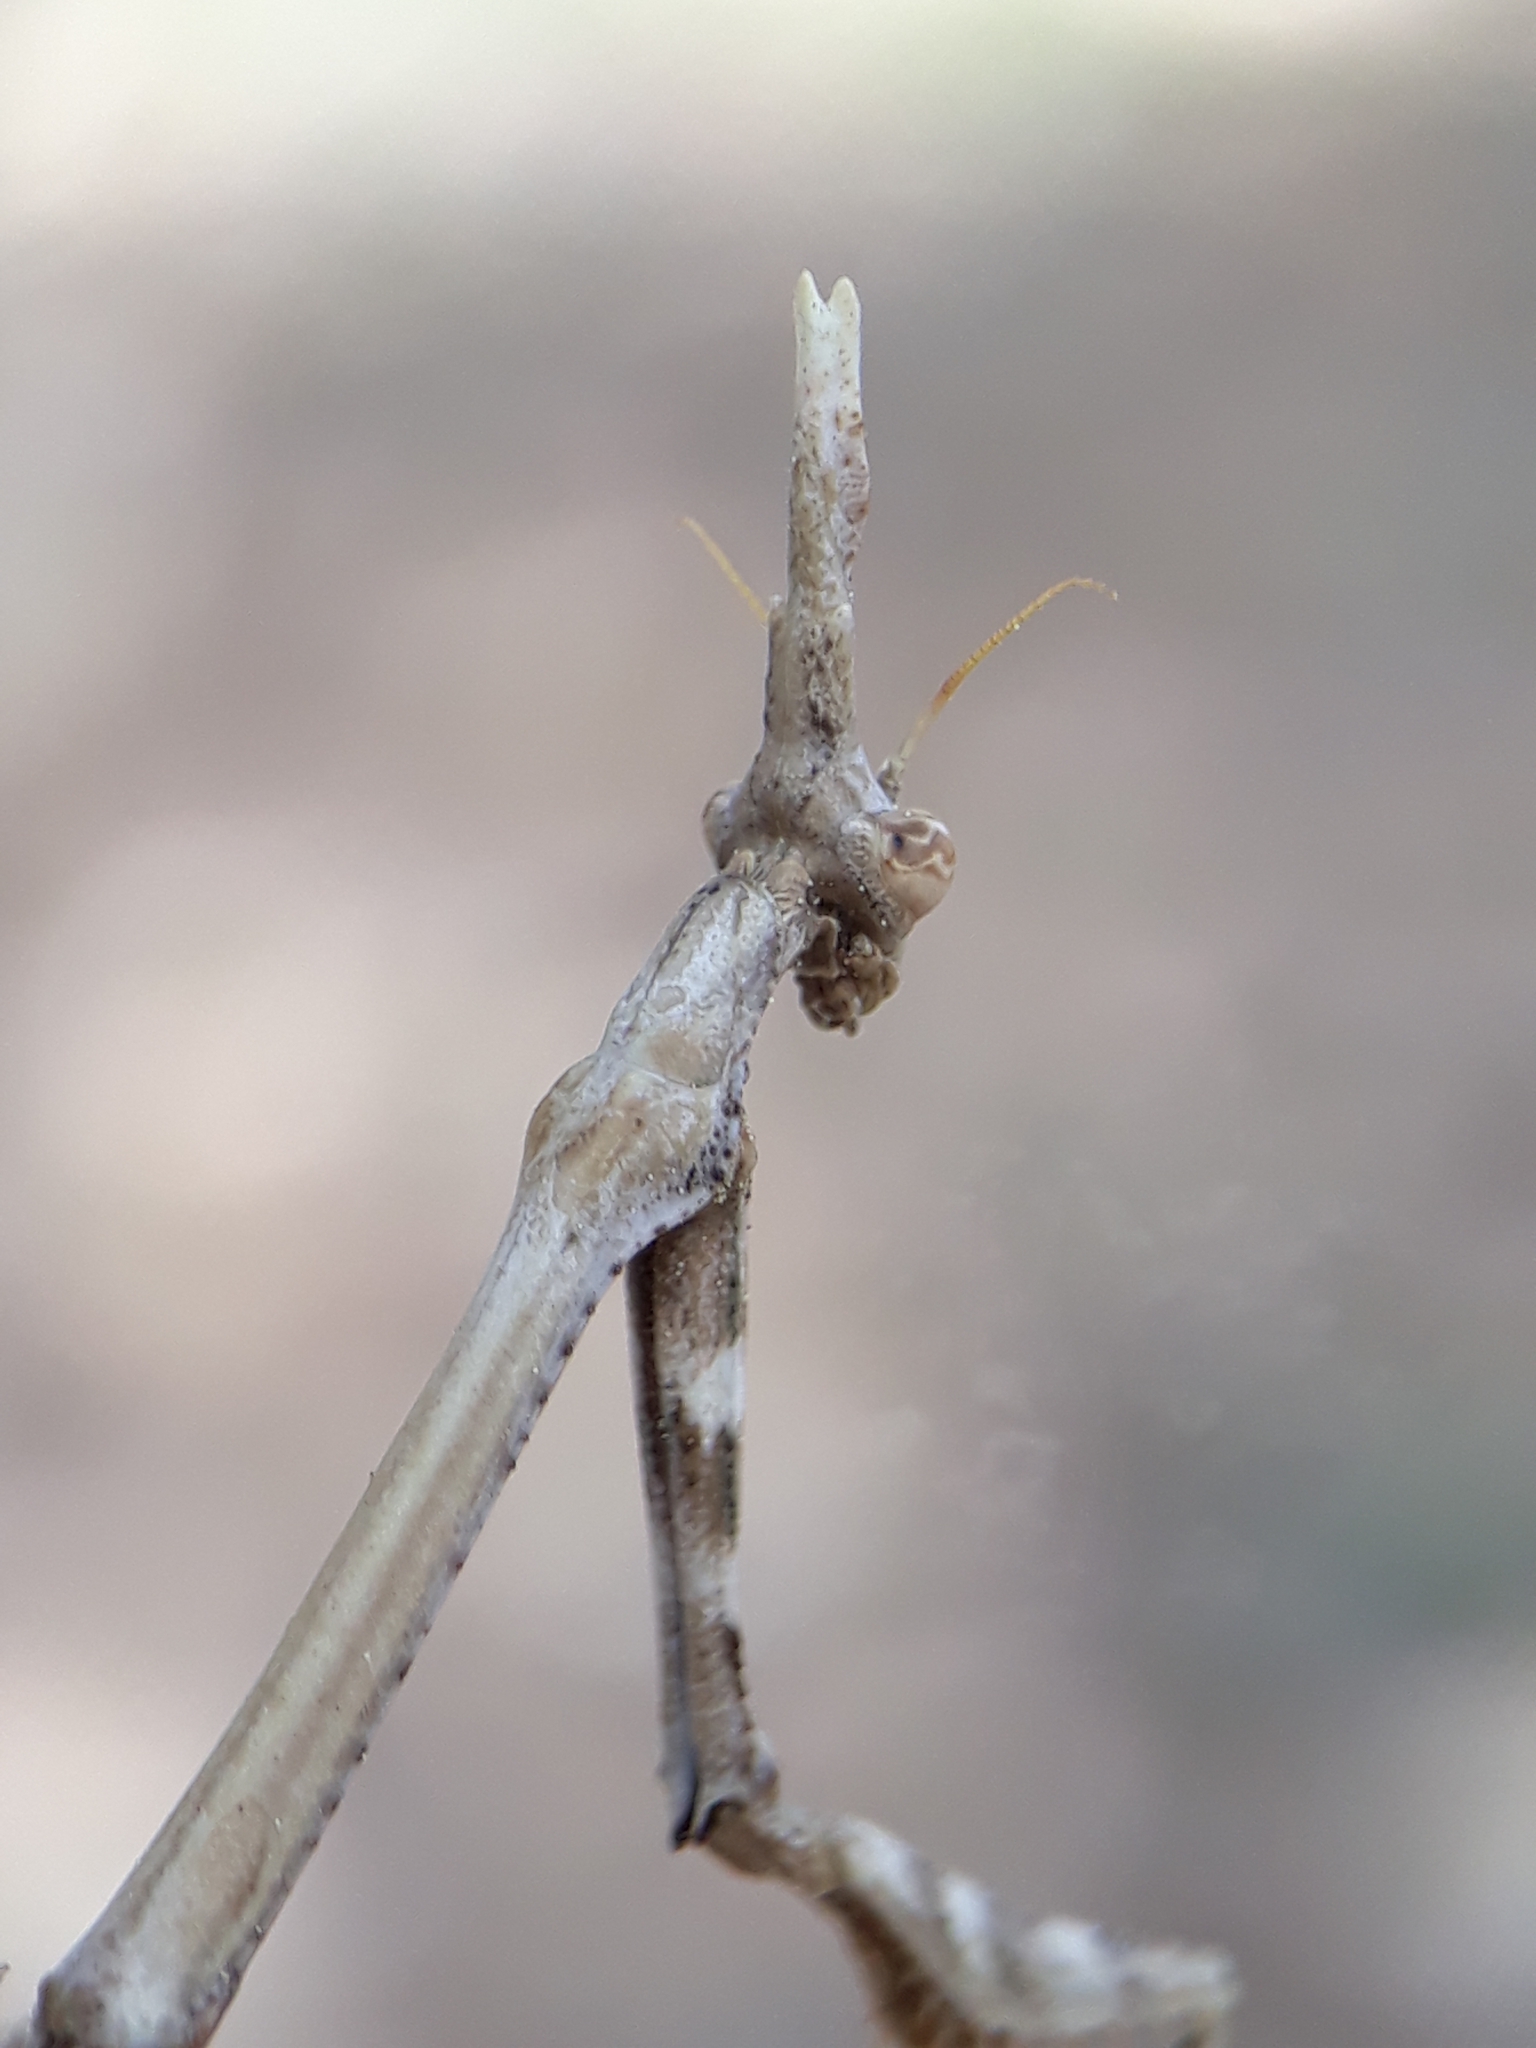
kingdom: Animalia
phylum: Arthropoda
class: Insecta
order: Mantodea
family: Empusidae
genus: Empusa
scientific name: Empusa pennata
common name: Conehead mantis
